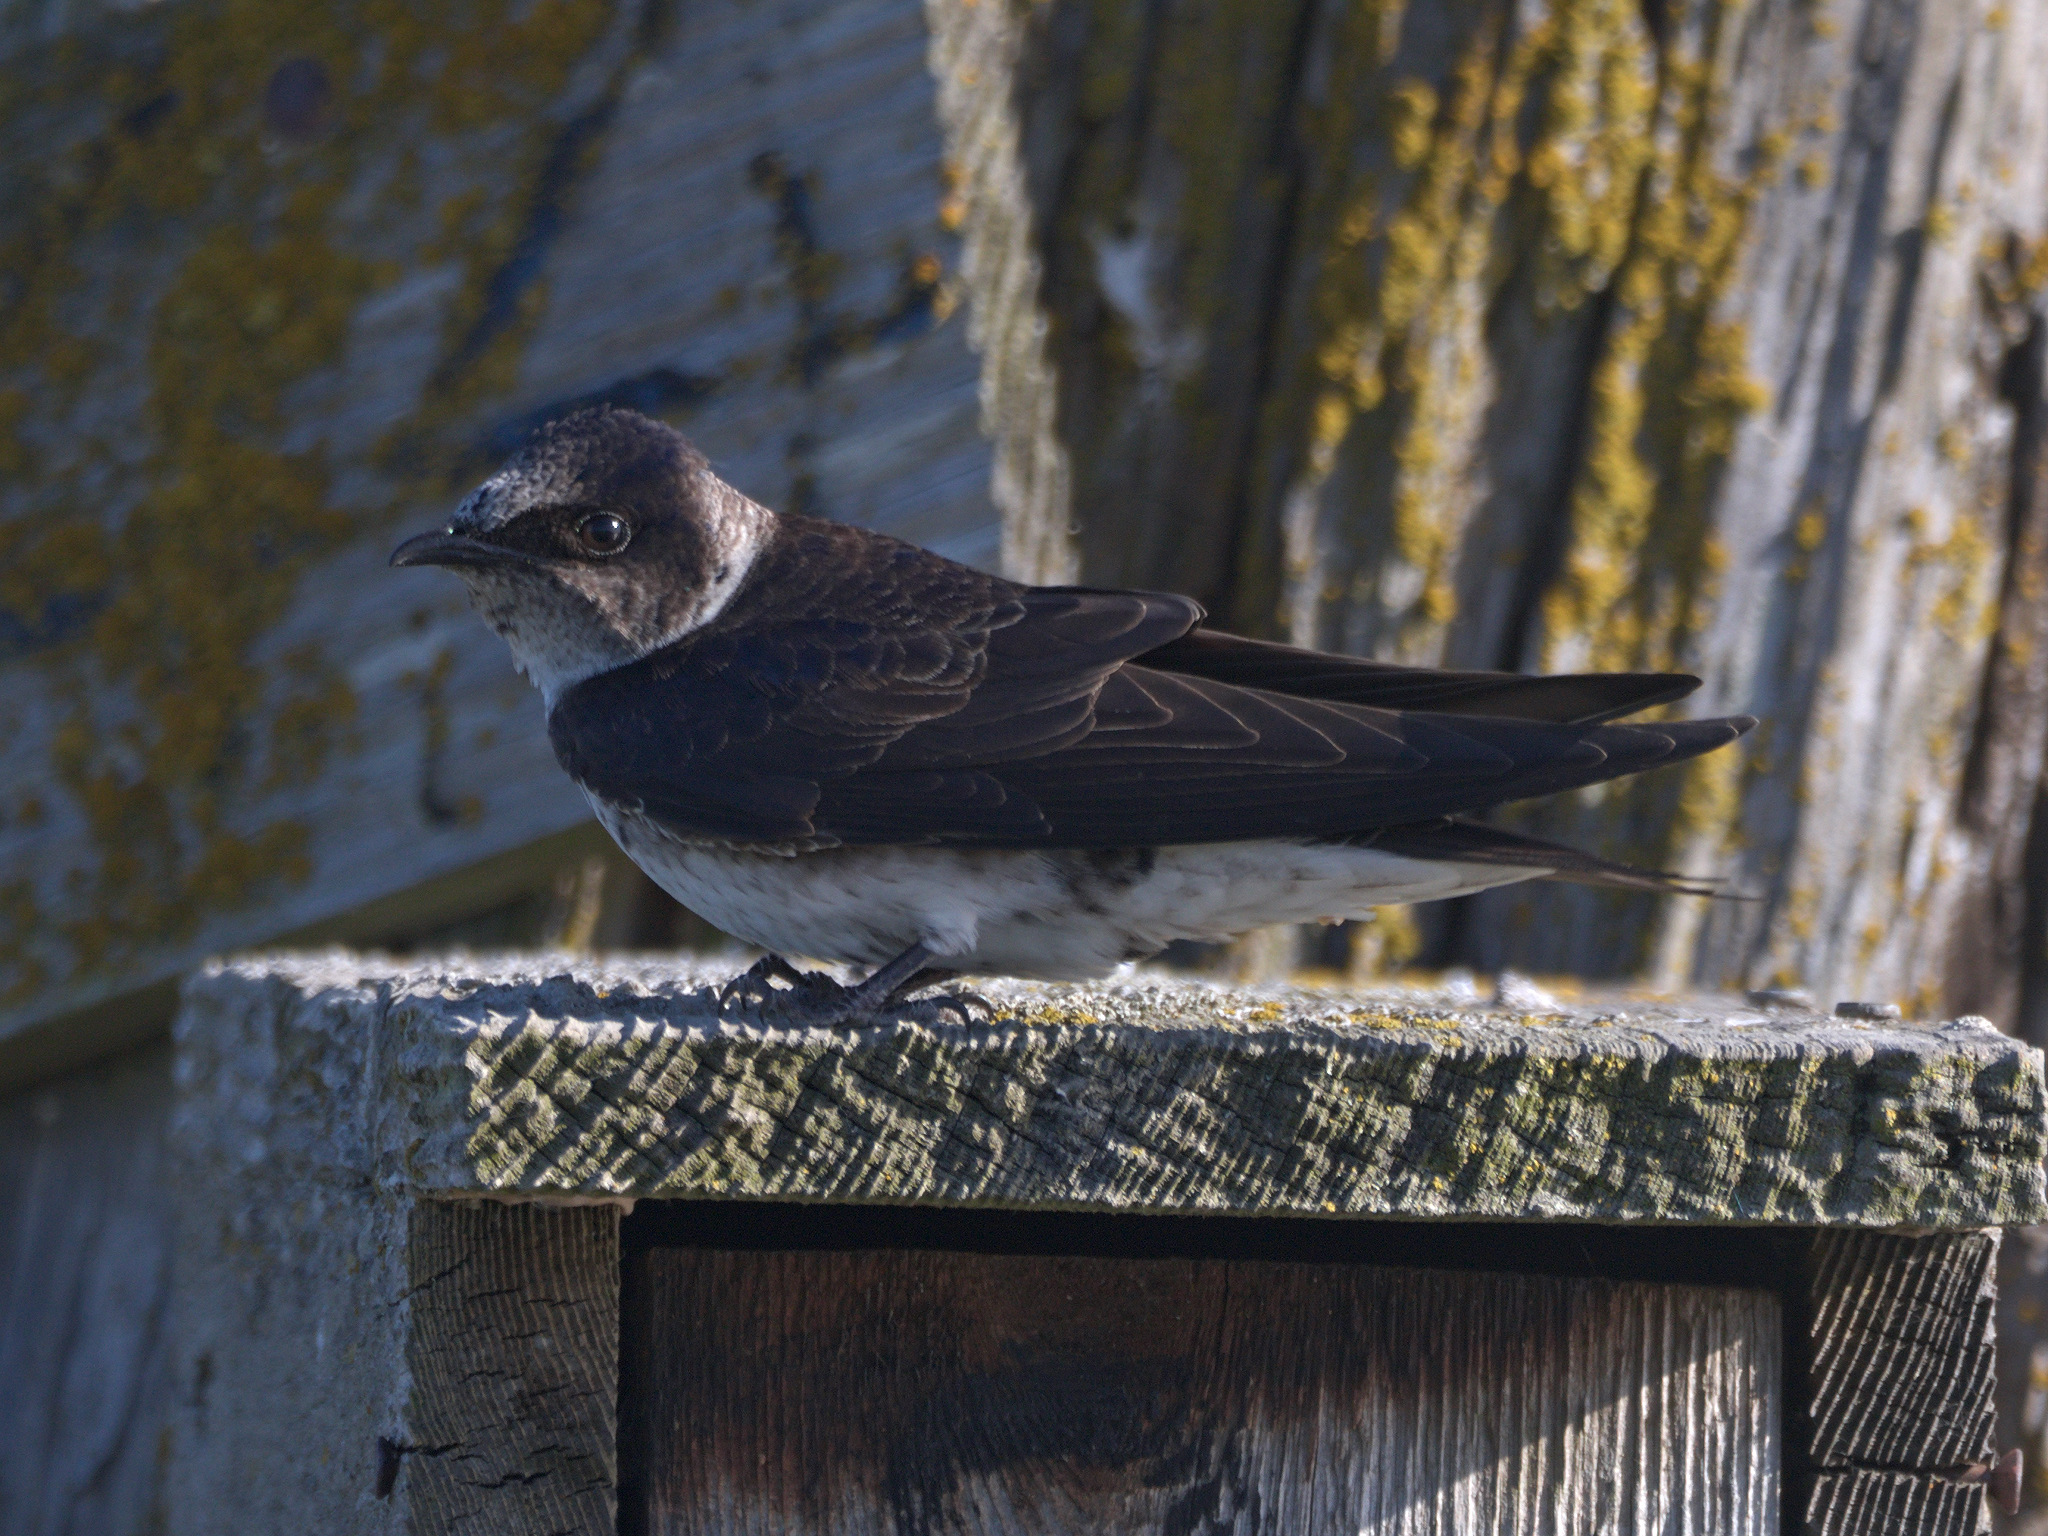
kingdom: Animalia
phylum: Chordata
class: Aves
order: Passeriformes
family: Hirundinidae
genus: Progne
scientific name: Progne subis
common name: Purple martin
